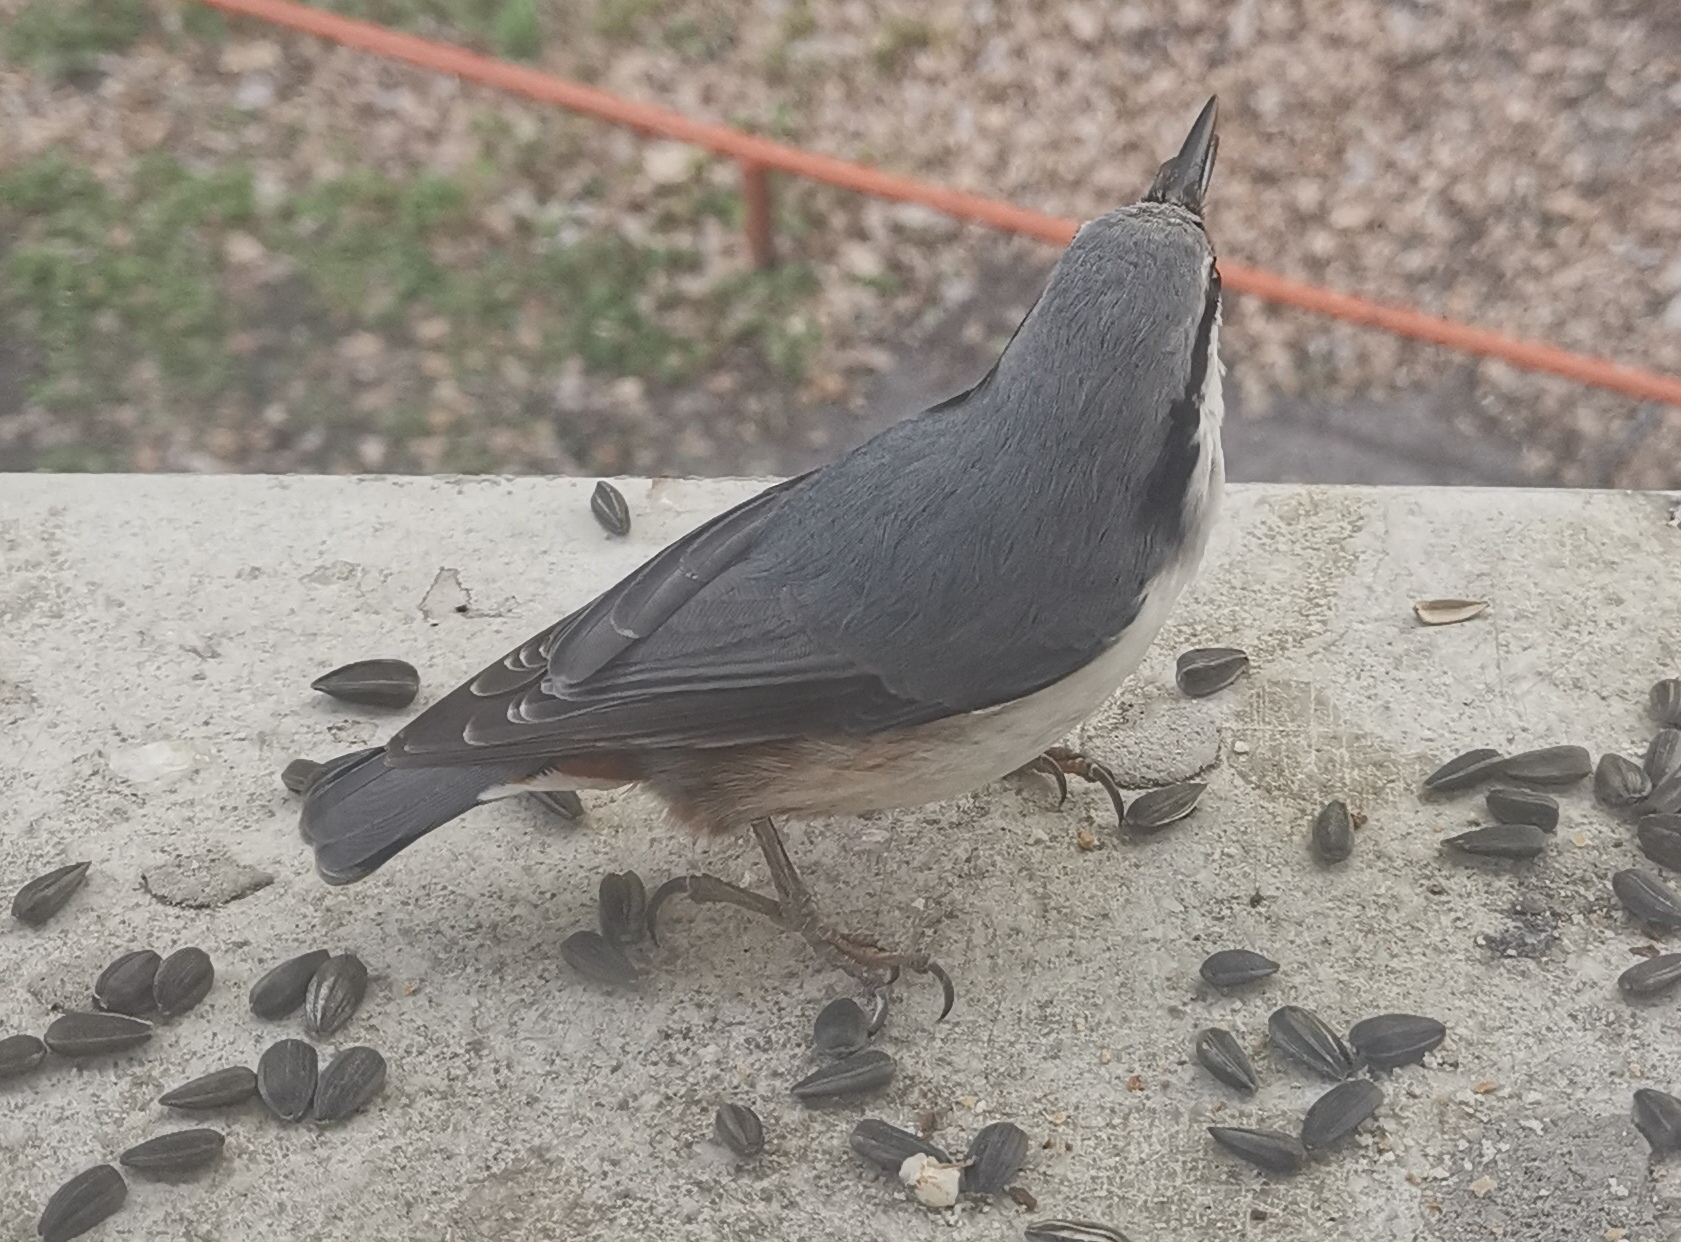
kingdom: Animalia
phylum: Chordata
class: Aves
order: Passeriformes
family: Sittidae
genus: Sitta
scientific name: Sitta europaea
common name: Eurasian nuthatch
